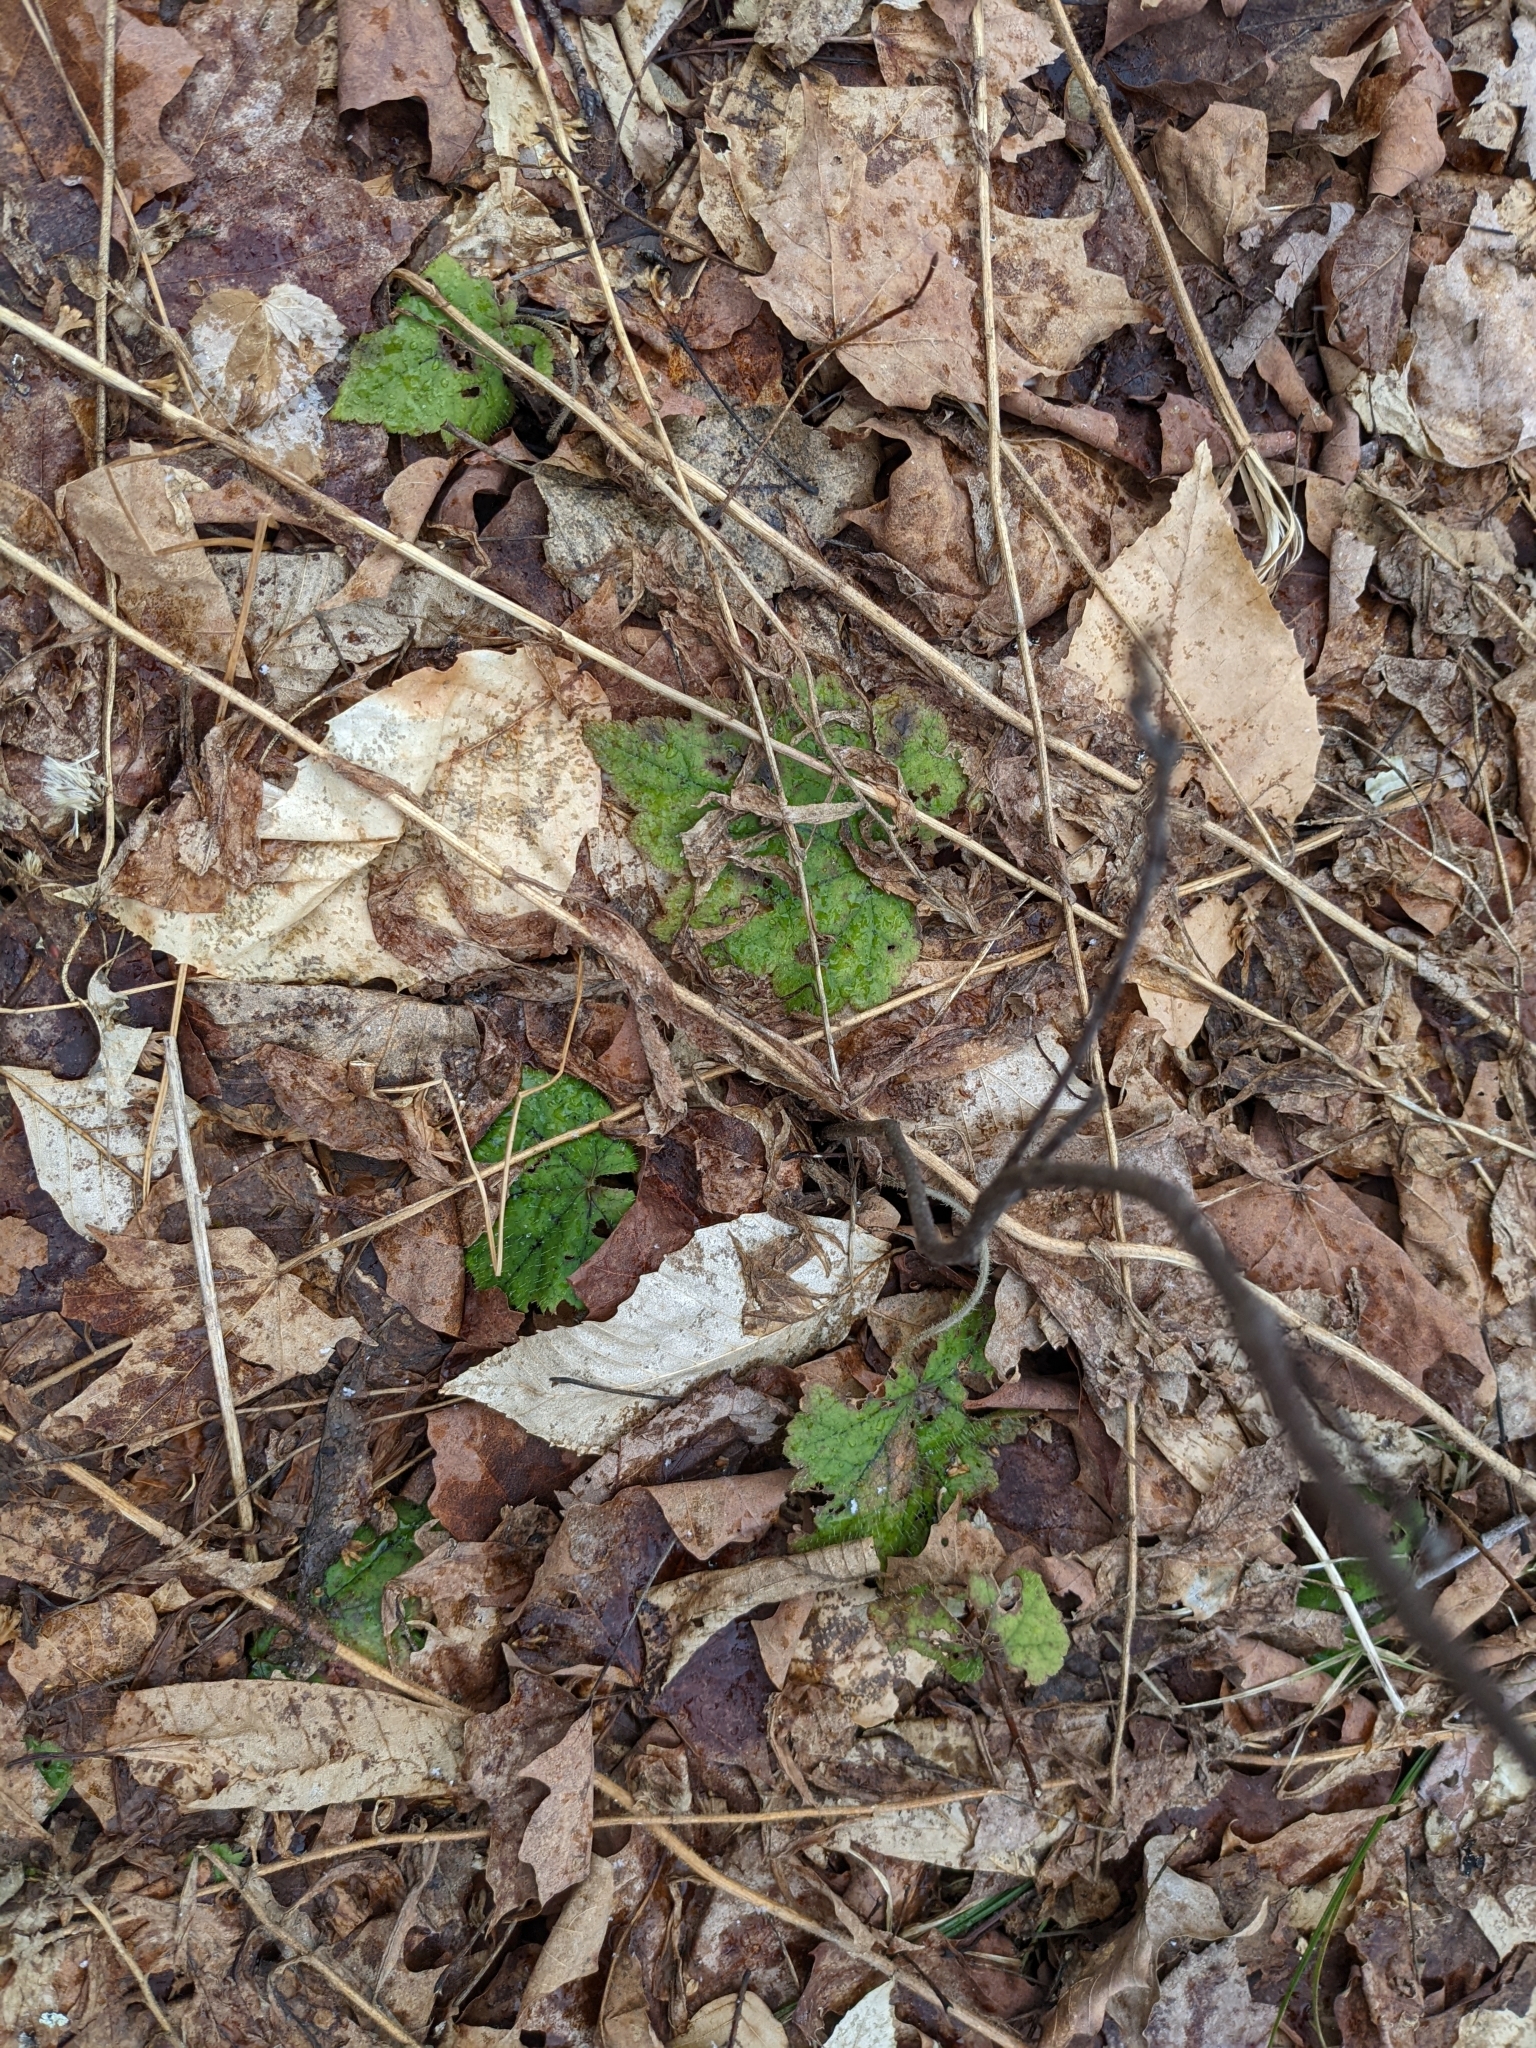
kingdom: Plantae
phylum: Tracheophyta
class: Magnoliopsida
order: Saxifragales
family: Saxifragaceae
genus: Tiarella
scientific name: Tiarella stolonifera
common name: Stoloniferous foamflower
